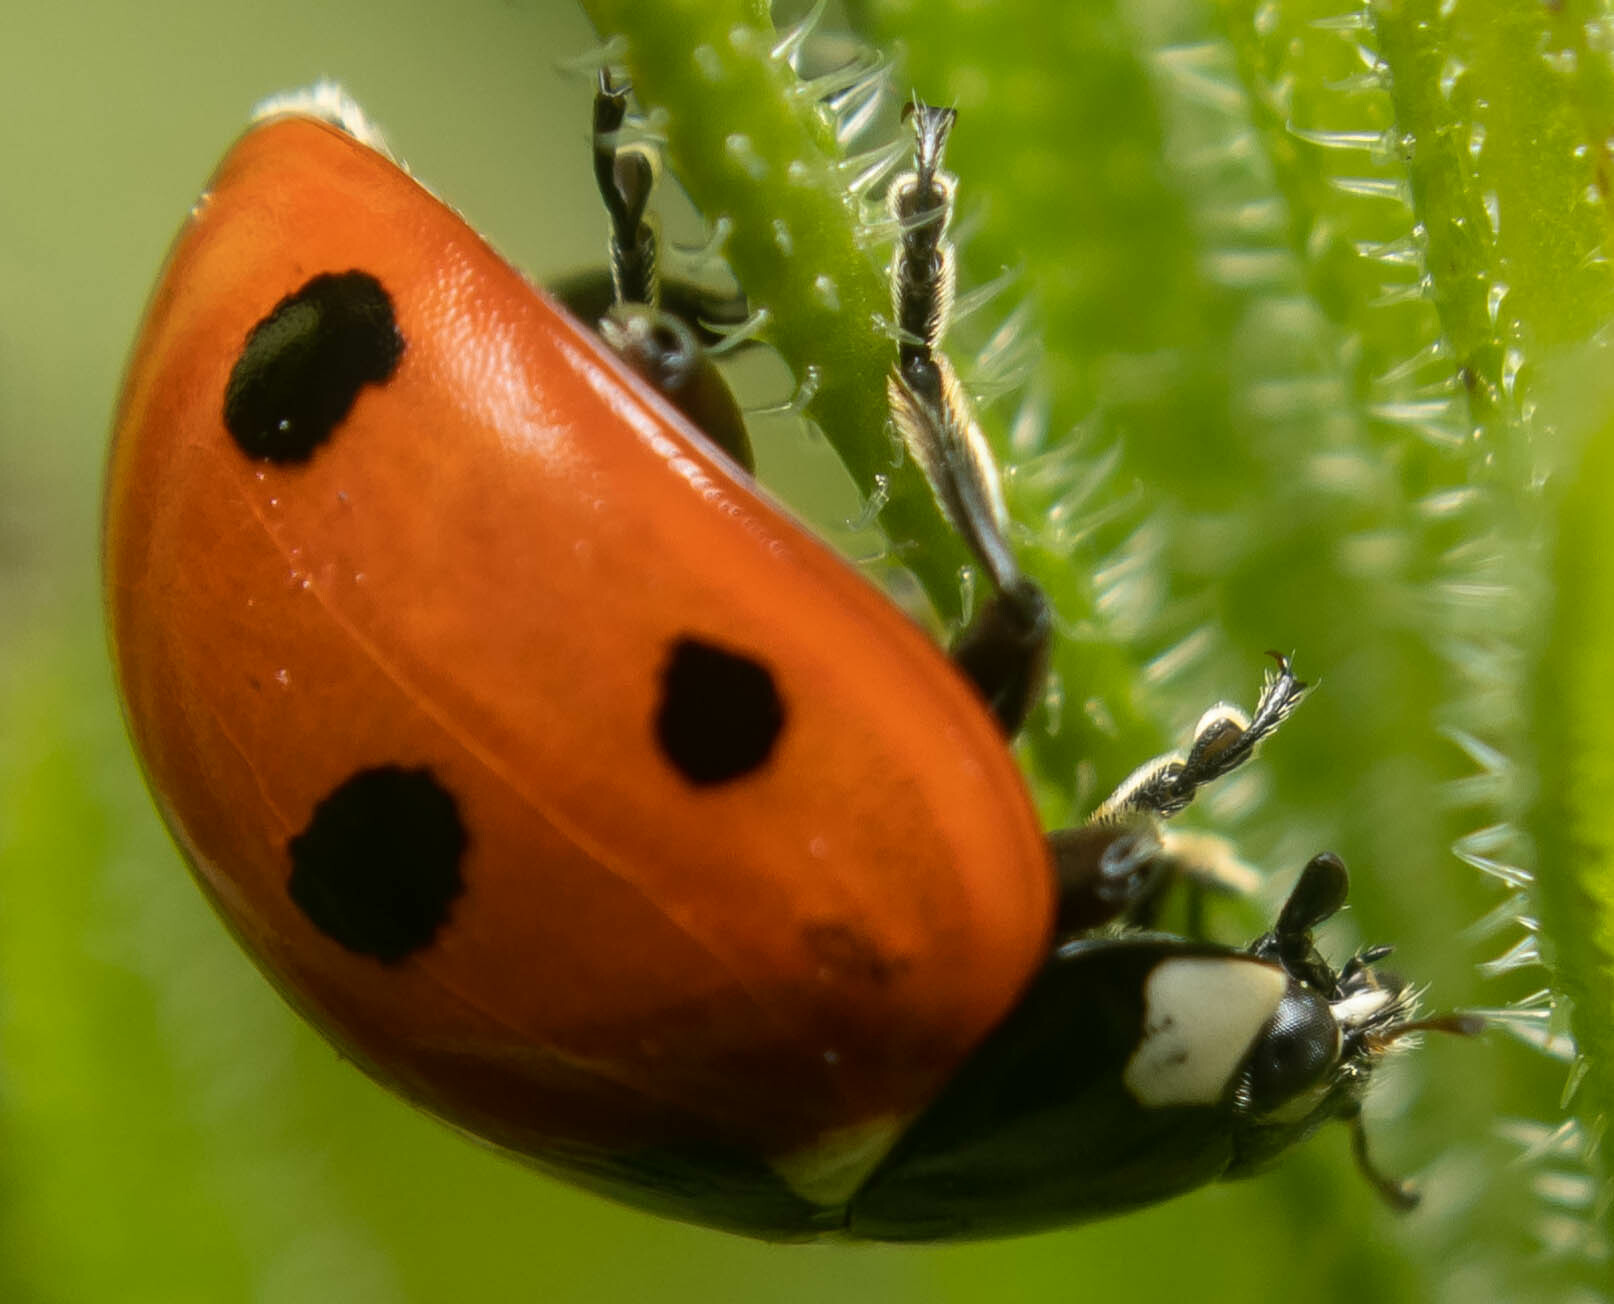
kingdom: Animalia
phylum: Arthropoda
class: Insecta
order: Coleoptera
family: Coccinellidae
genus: Coccinella
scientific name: Coccinella septempunctata
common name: Sevenspotted lady beetle
